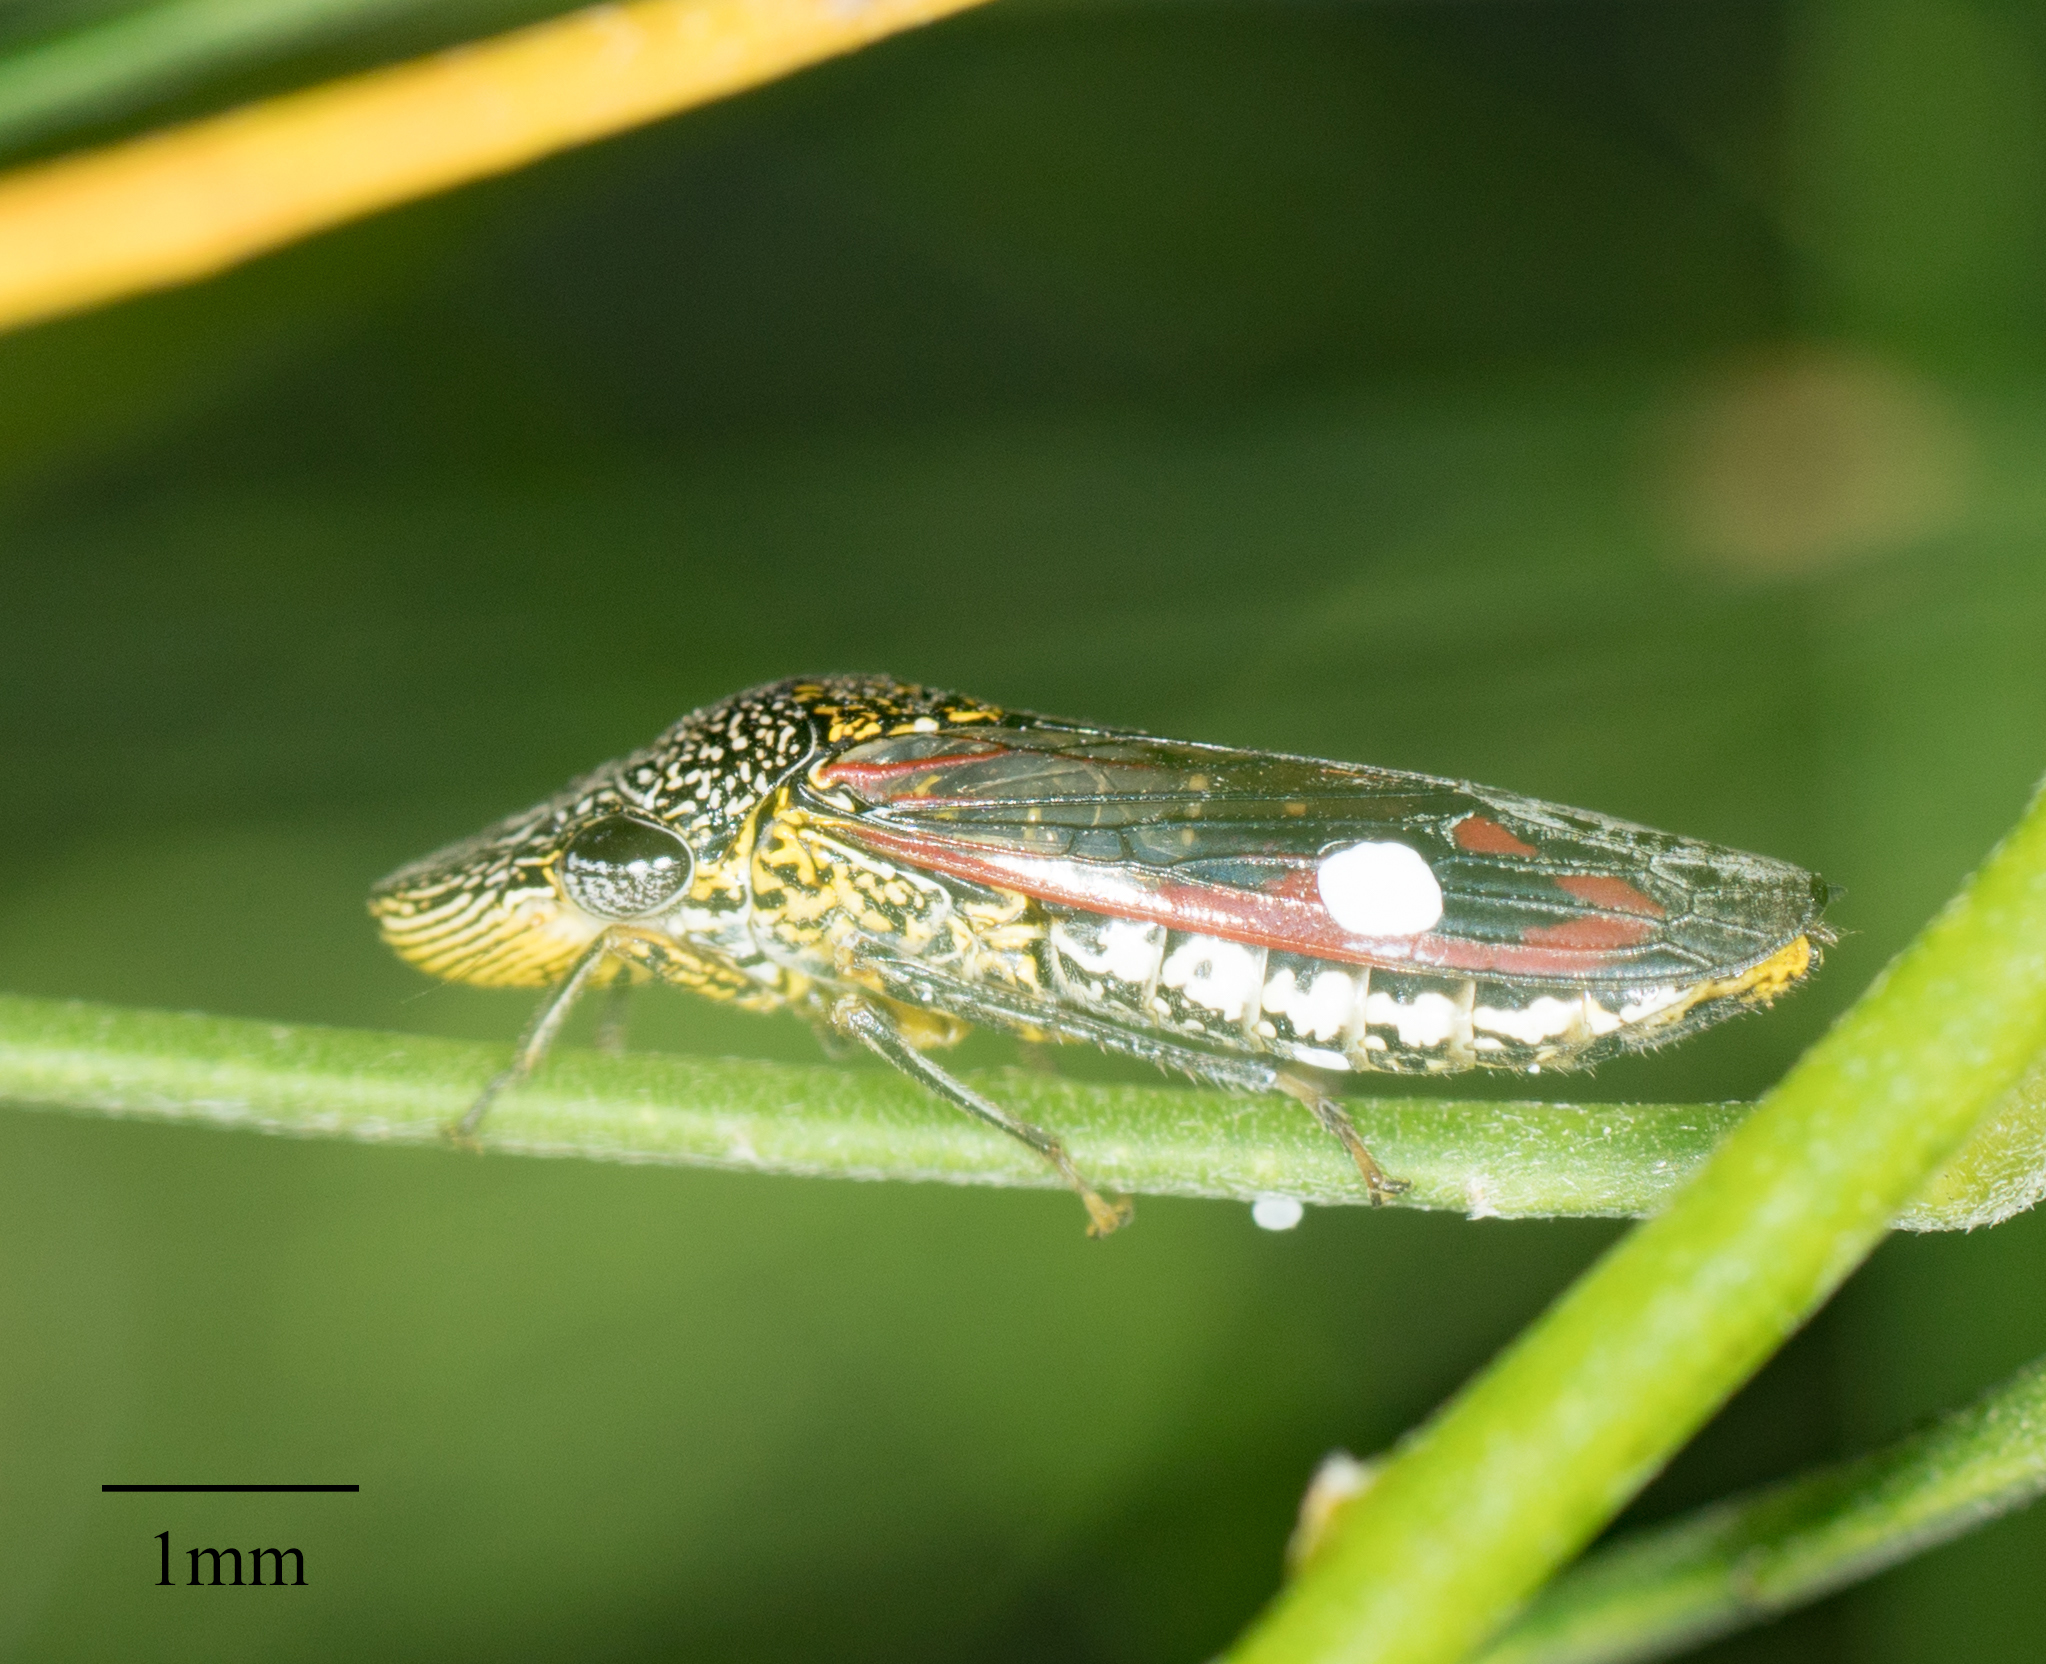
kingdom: Animalia
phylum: Arthropoda
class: Insecta
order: Hemiptera
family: Cicadellidae
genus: Homalodisca
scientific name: Homalodisca vitripennis
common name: Glassy-winged sharpshooter
